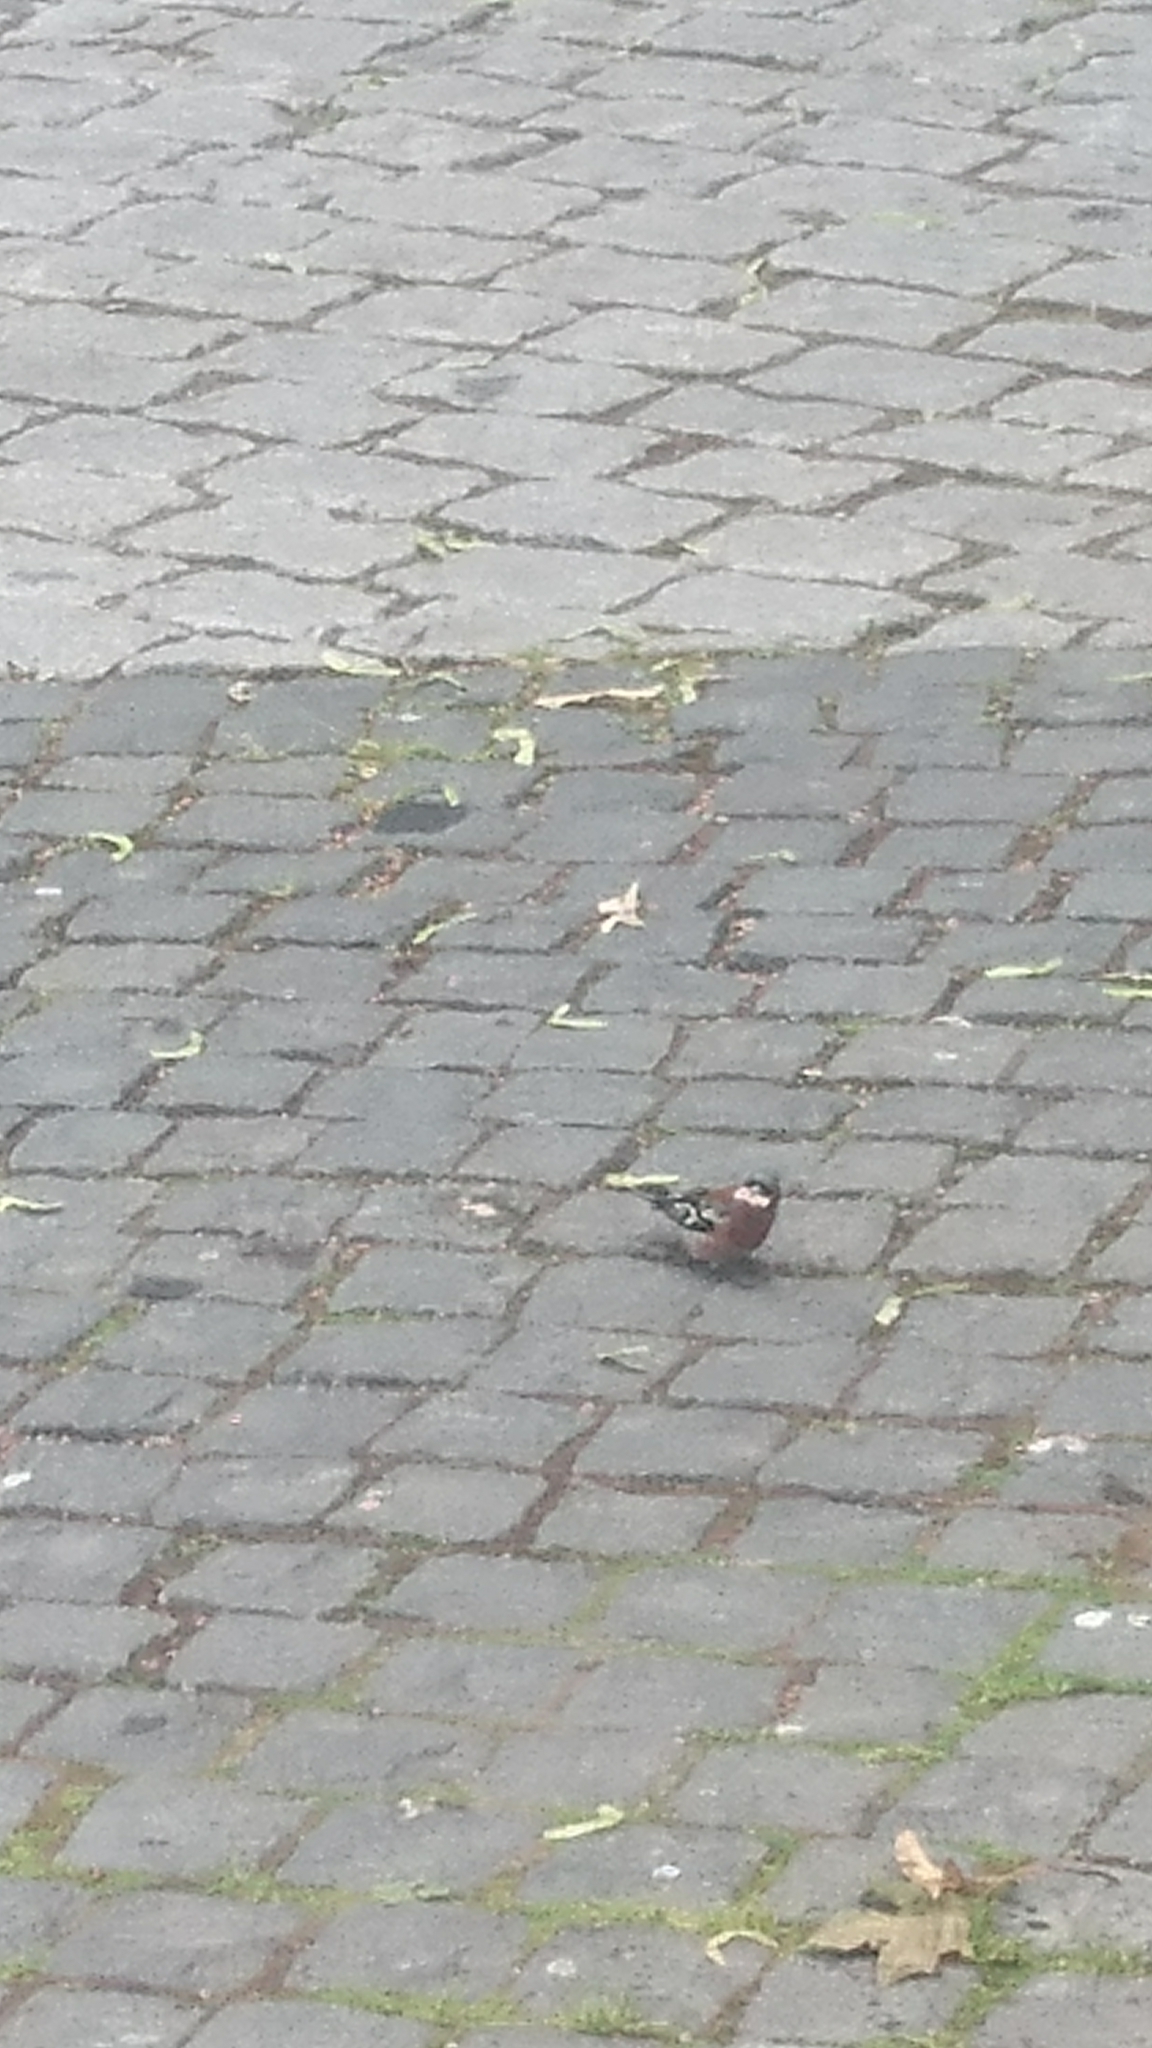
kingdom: Animalia
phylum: Chordata
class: Aves
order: Passeriformes
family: Fringillidae
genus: Fringilla
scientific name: Fringilla coelebs
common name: Common chaffinch
